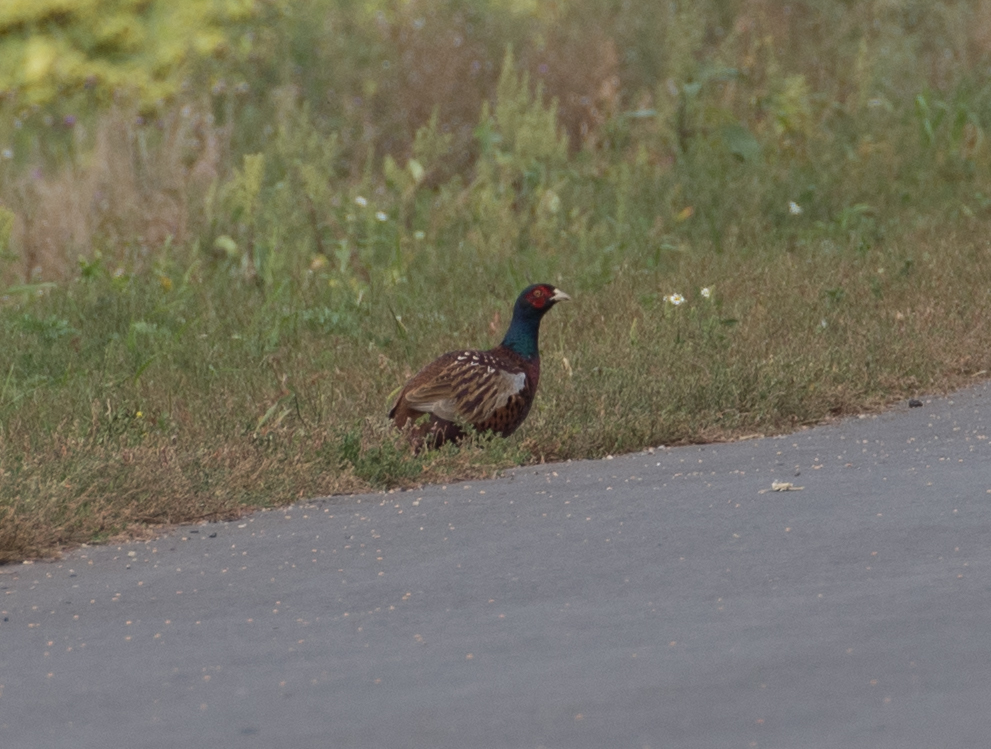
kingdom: Animalia
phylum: Chordata
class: Aves
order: Galliformes
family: Phasianidae
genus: Phasianus
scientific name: Phasianus colchicus
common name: Common pheasant
